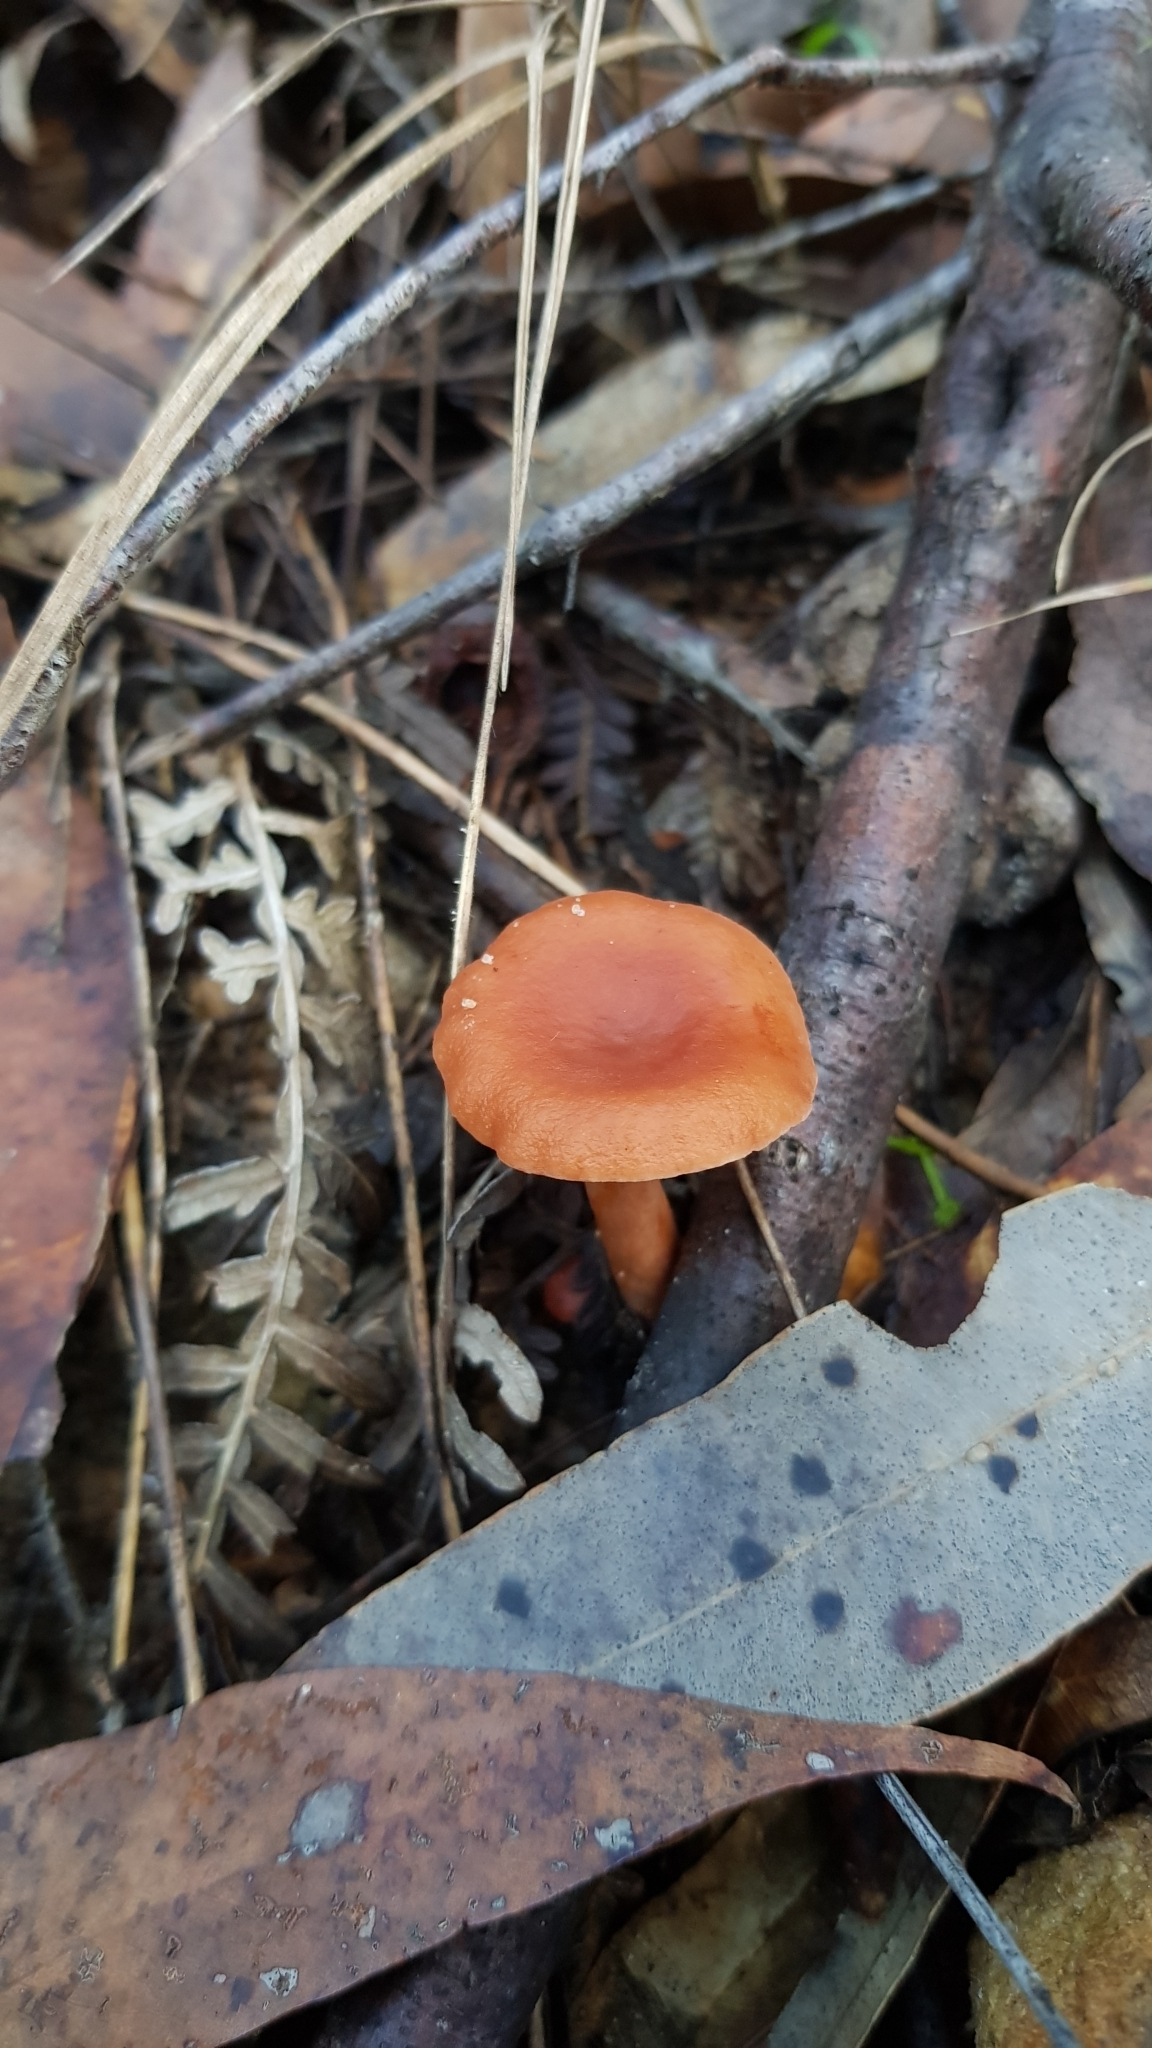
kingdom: Fungi
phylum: Basidiomycota
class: Agaricomycetes
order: Russulales
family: Russulaceae
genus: Lactarius
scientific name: Lactarius eucalypti
